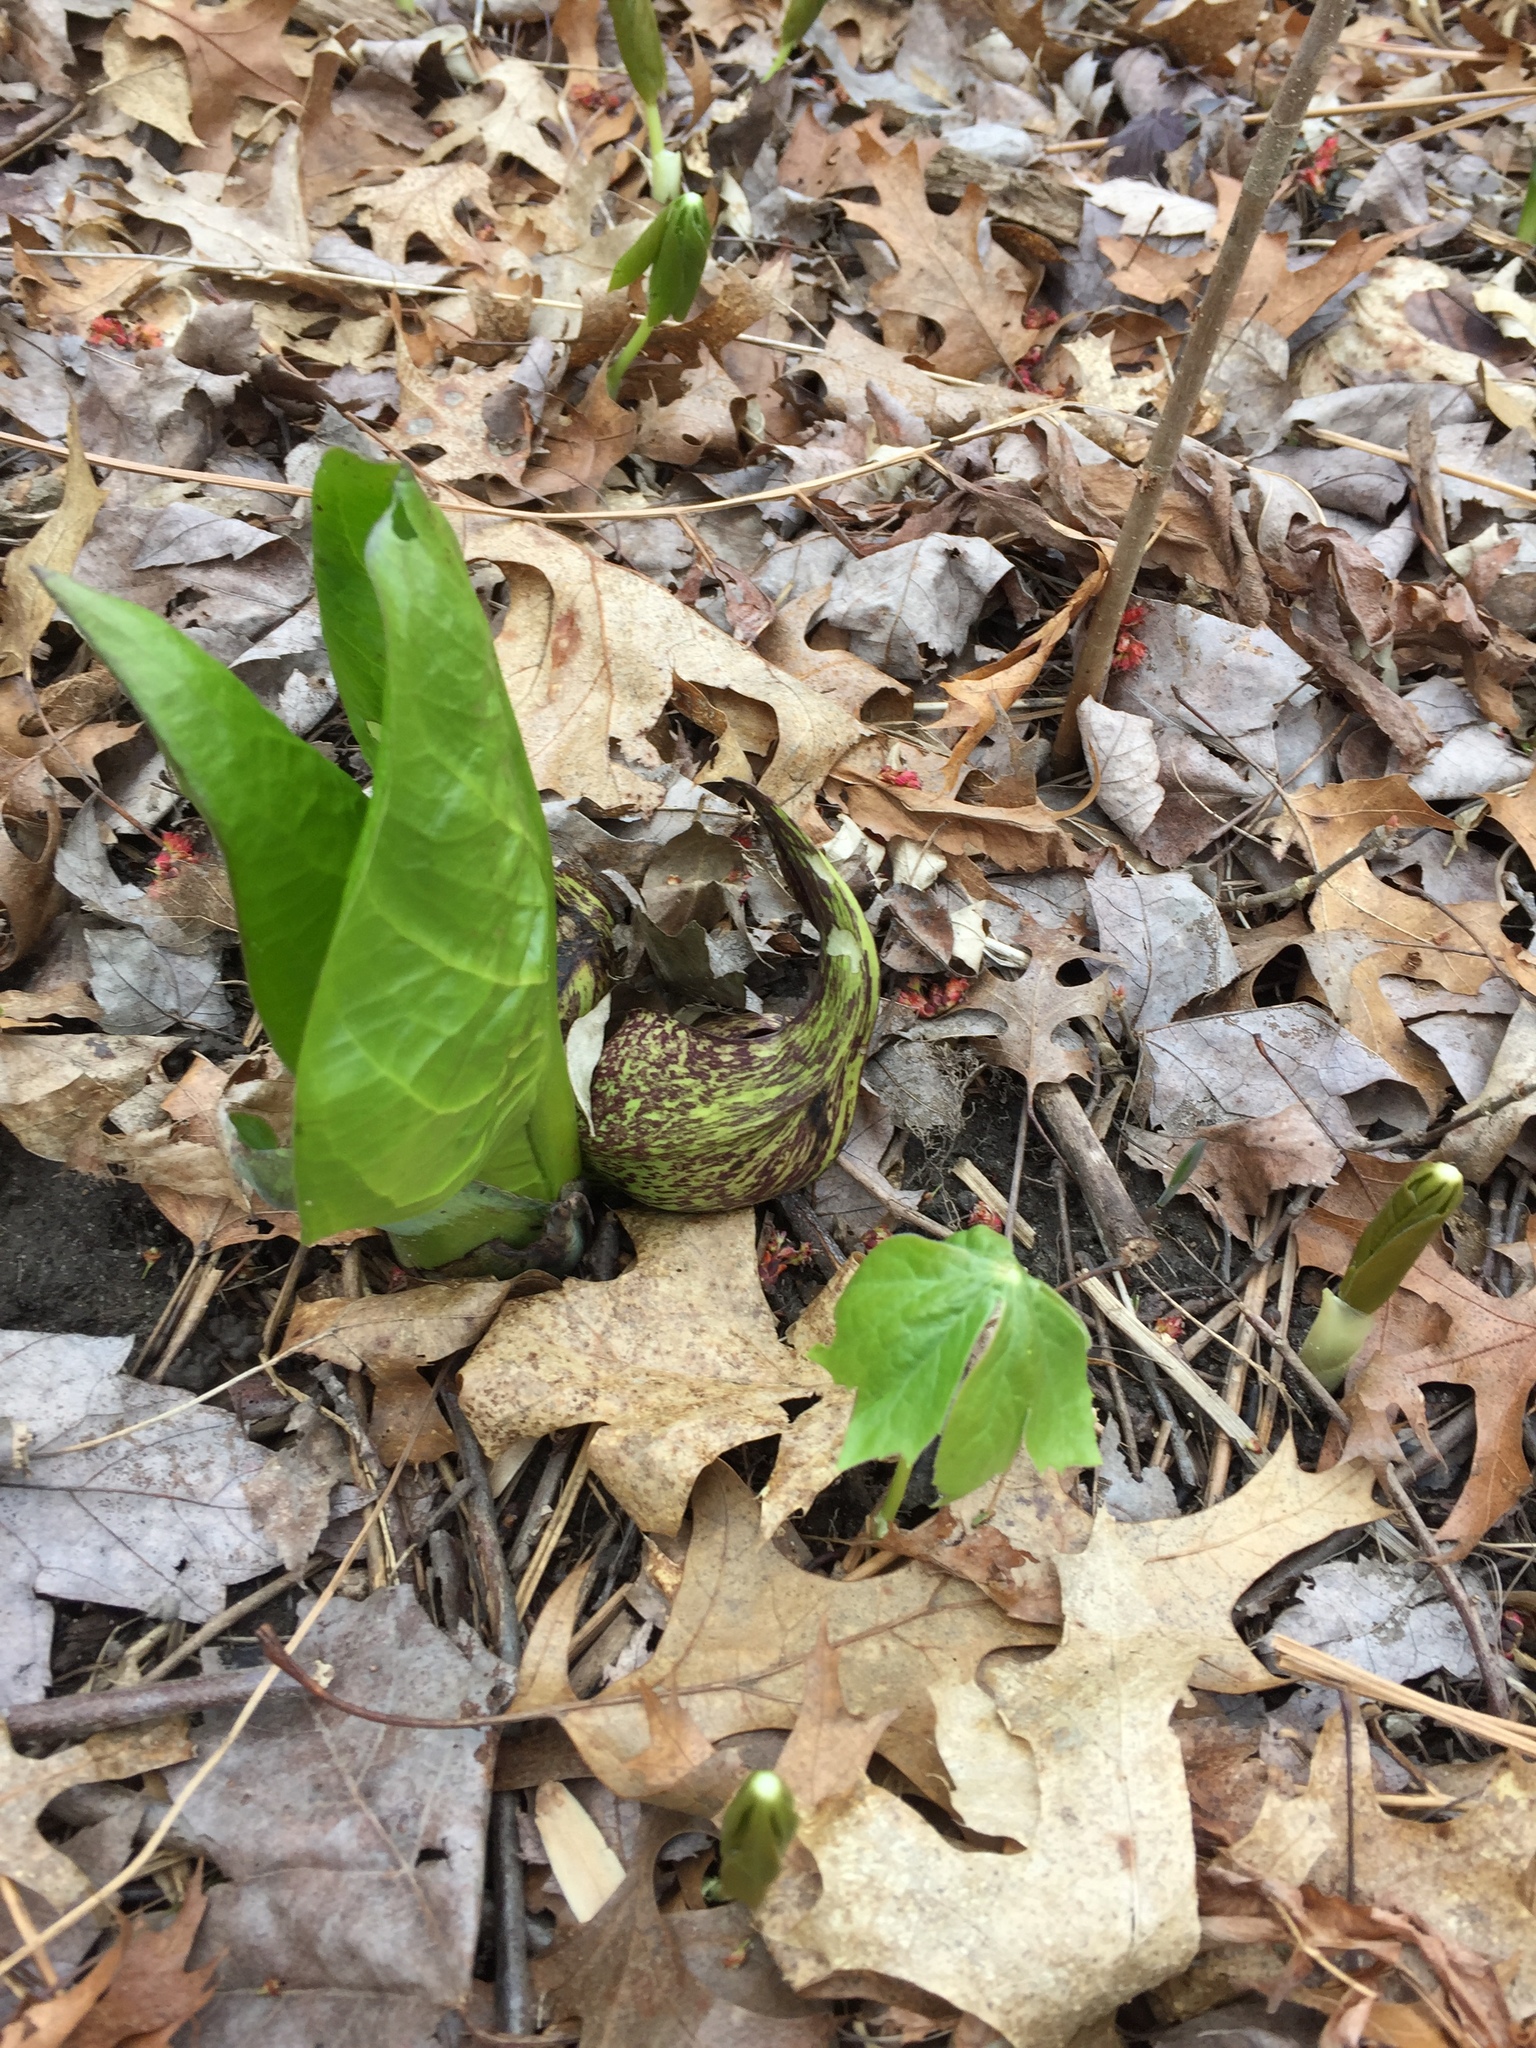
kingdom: Plantae
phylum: Tracheophyta
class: Liliopsida
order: Alismatales
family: Araceae
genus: Symplocarpus
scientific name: Symplocarpus foetidus
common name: Eastern skunk cabbage
